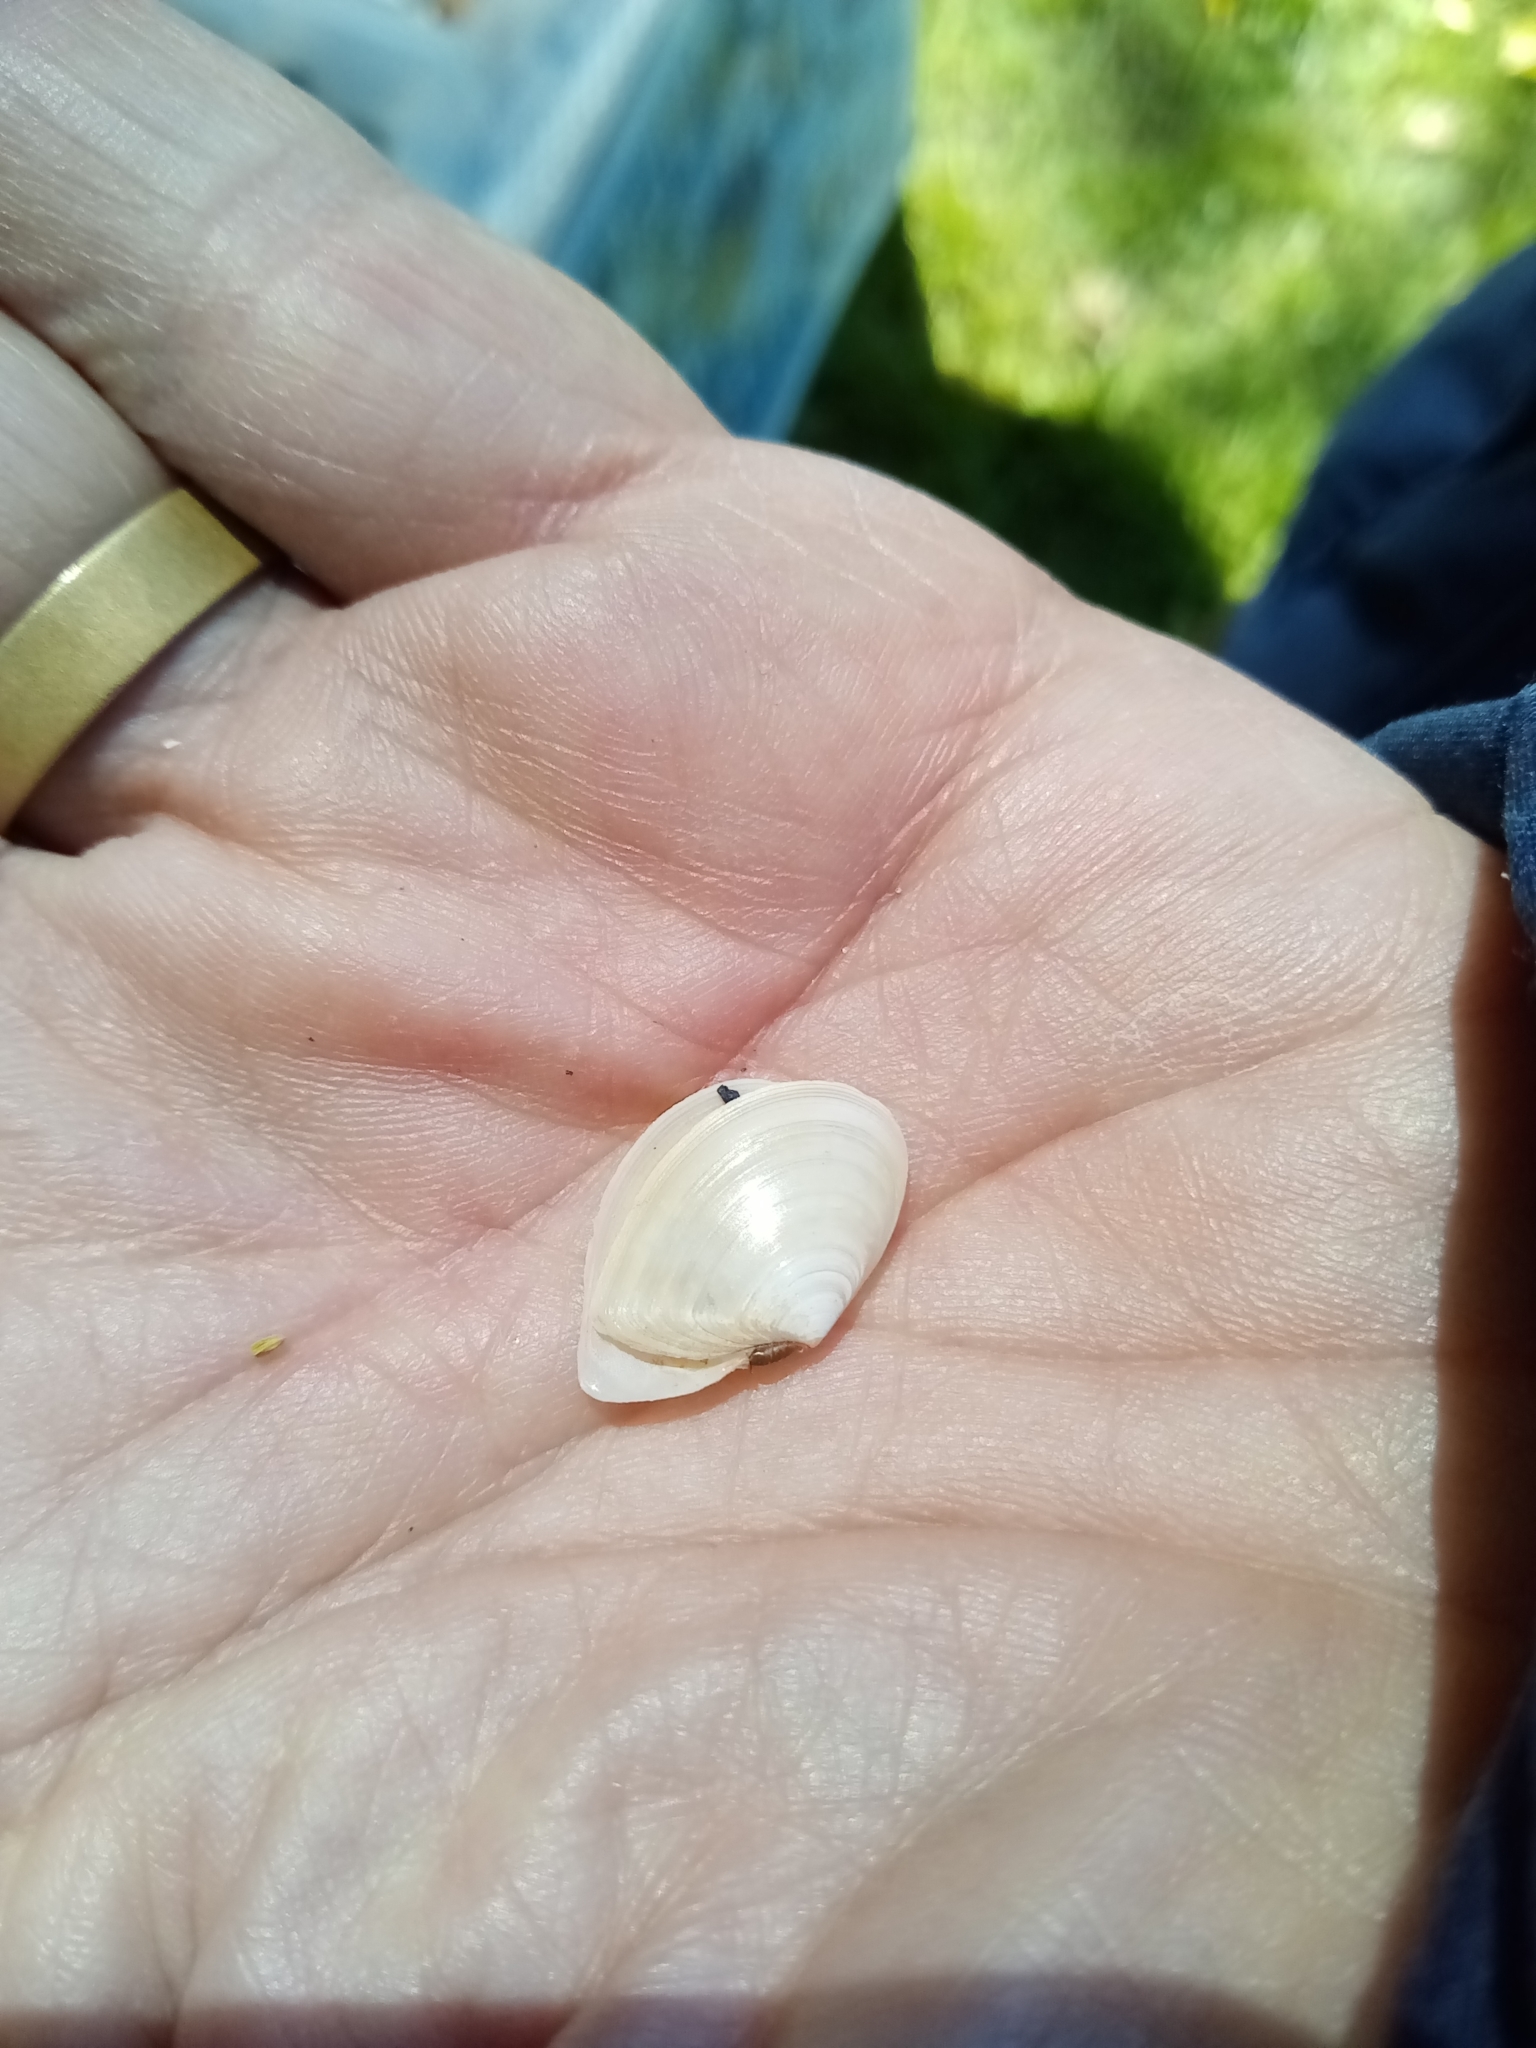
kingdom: Animalia
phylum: Mollusca
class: Bivalvia
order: Cardiida
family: Tellinidae
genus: Macomangulus
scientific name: Macomangulus tenuis
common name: Thin tellin
